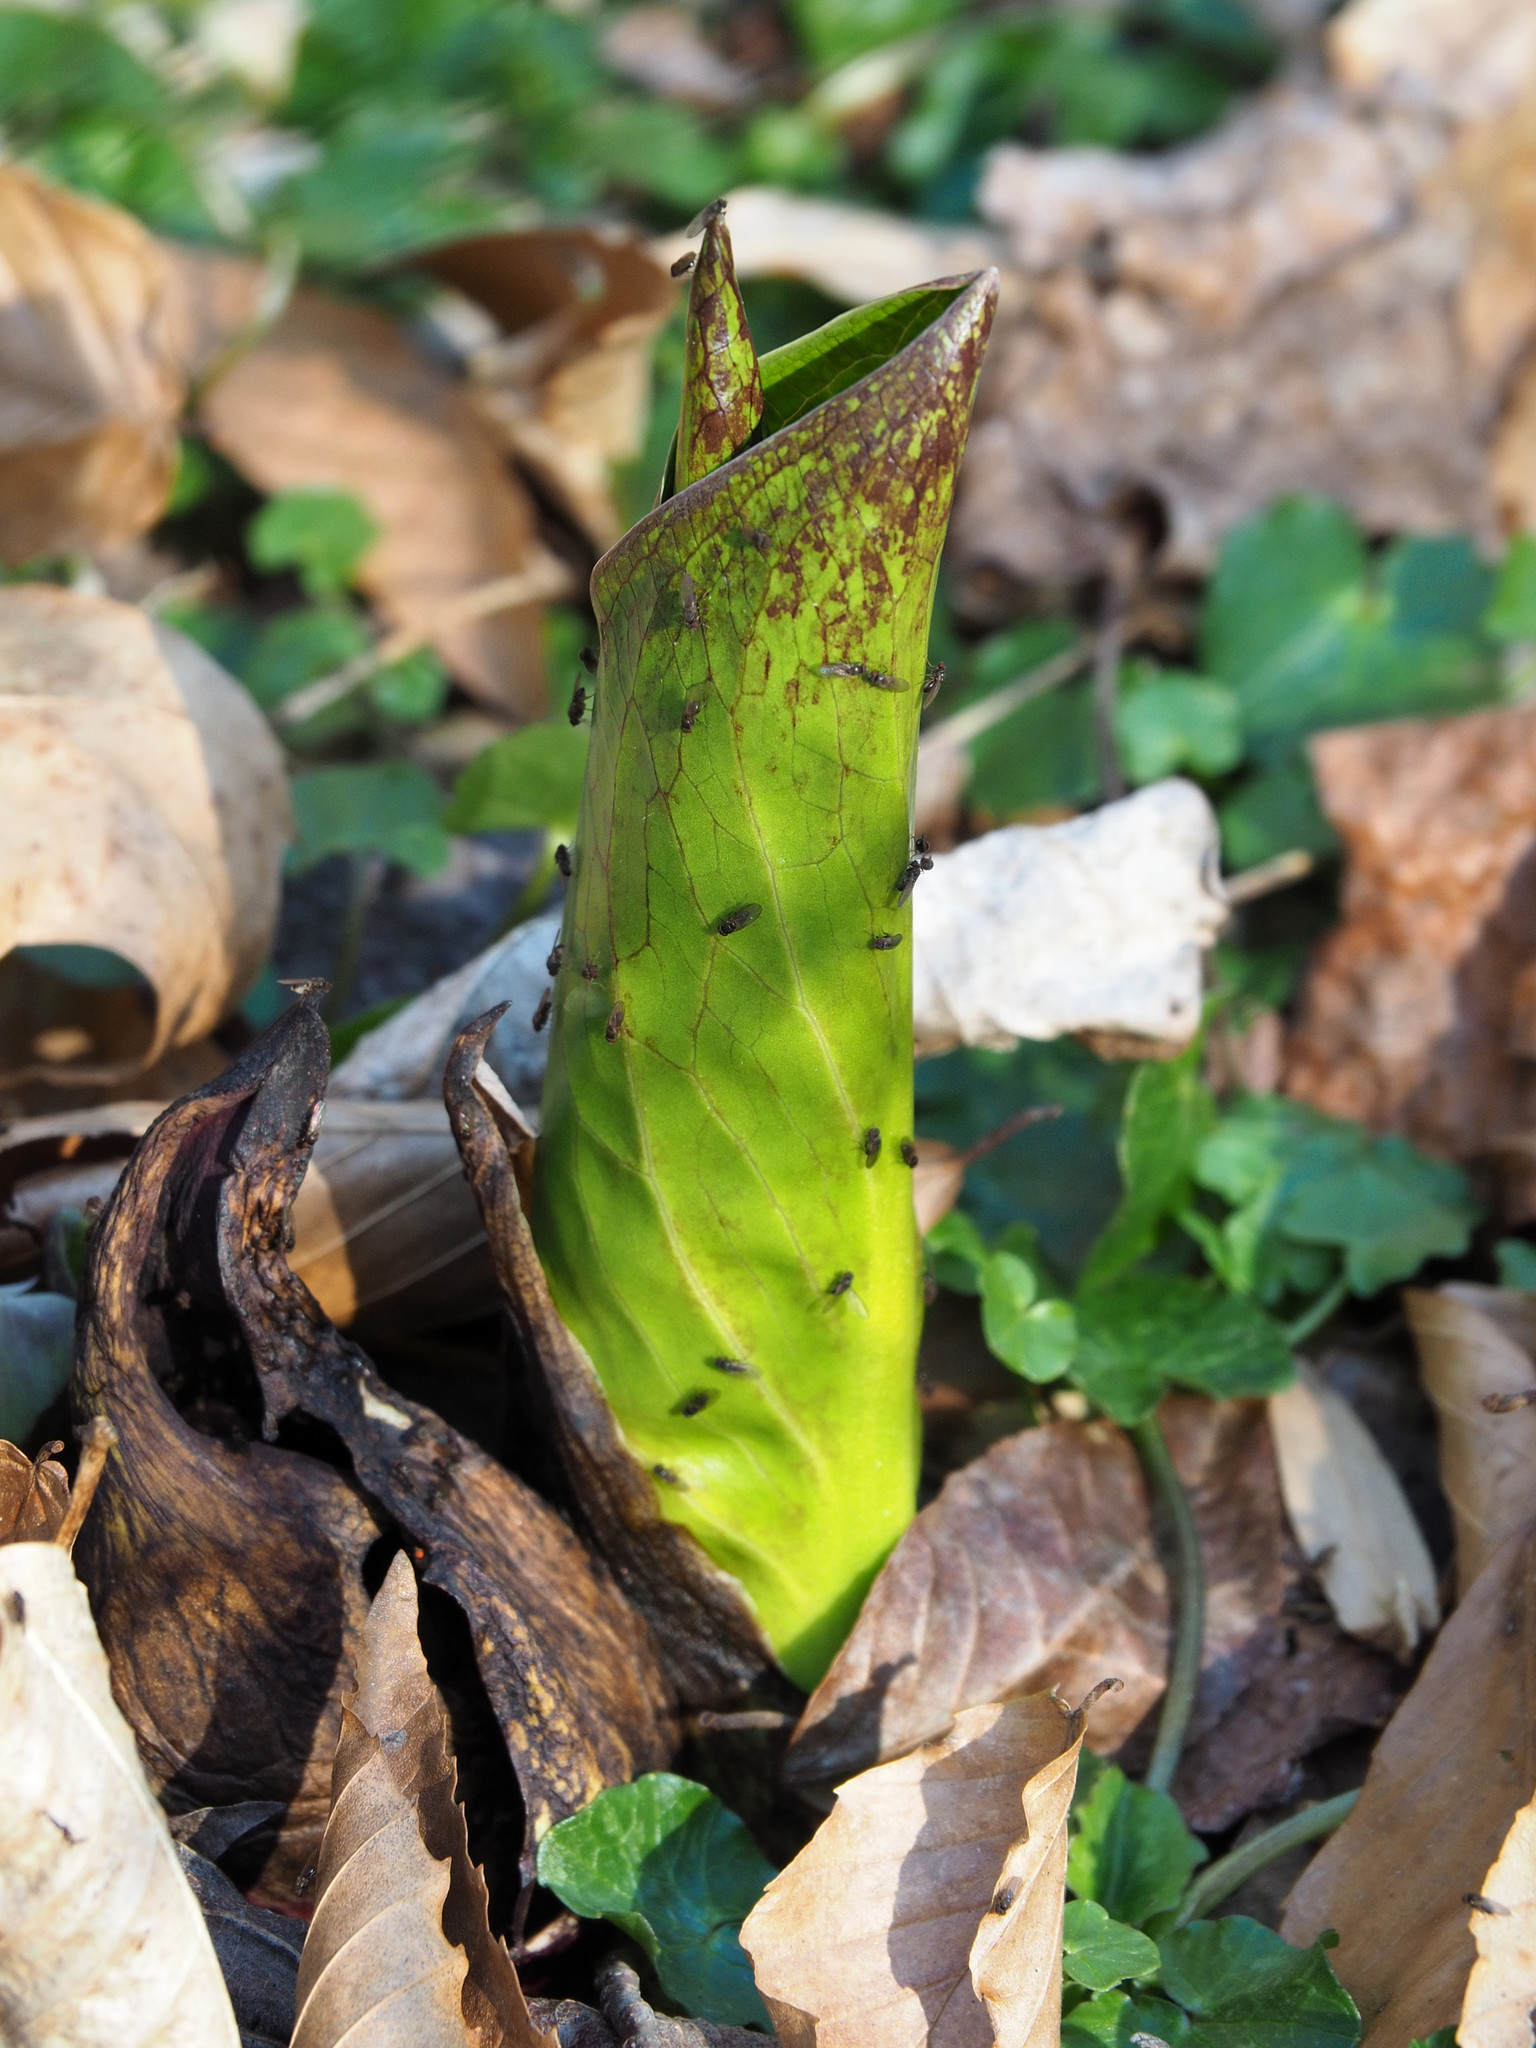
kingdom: Plantae
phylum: Tracheophyta
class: Liliopsida
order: Alismatales
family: Araceae
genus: Symplocarpus
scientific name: Symplocarpus foetidus
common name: Eastern skunk cabbage
